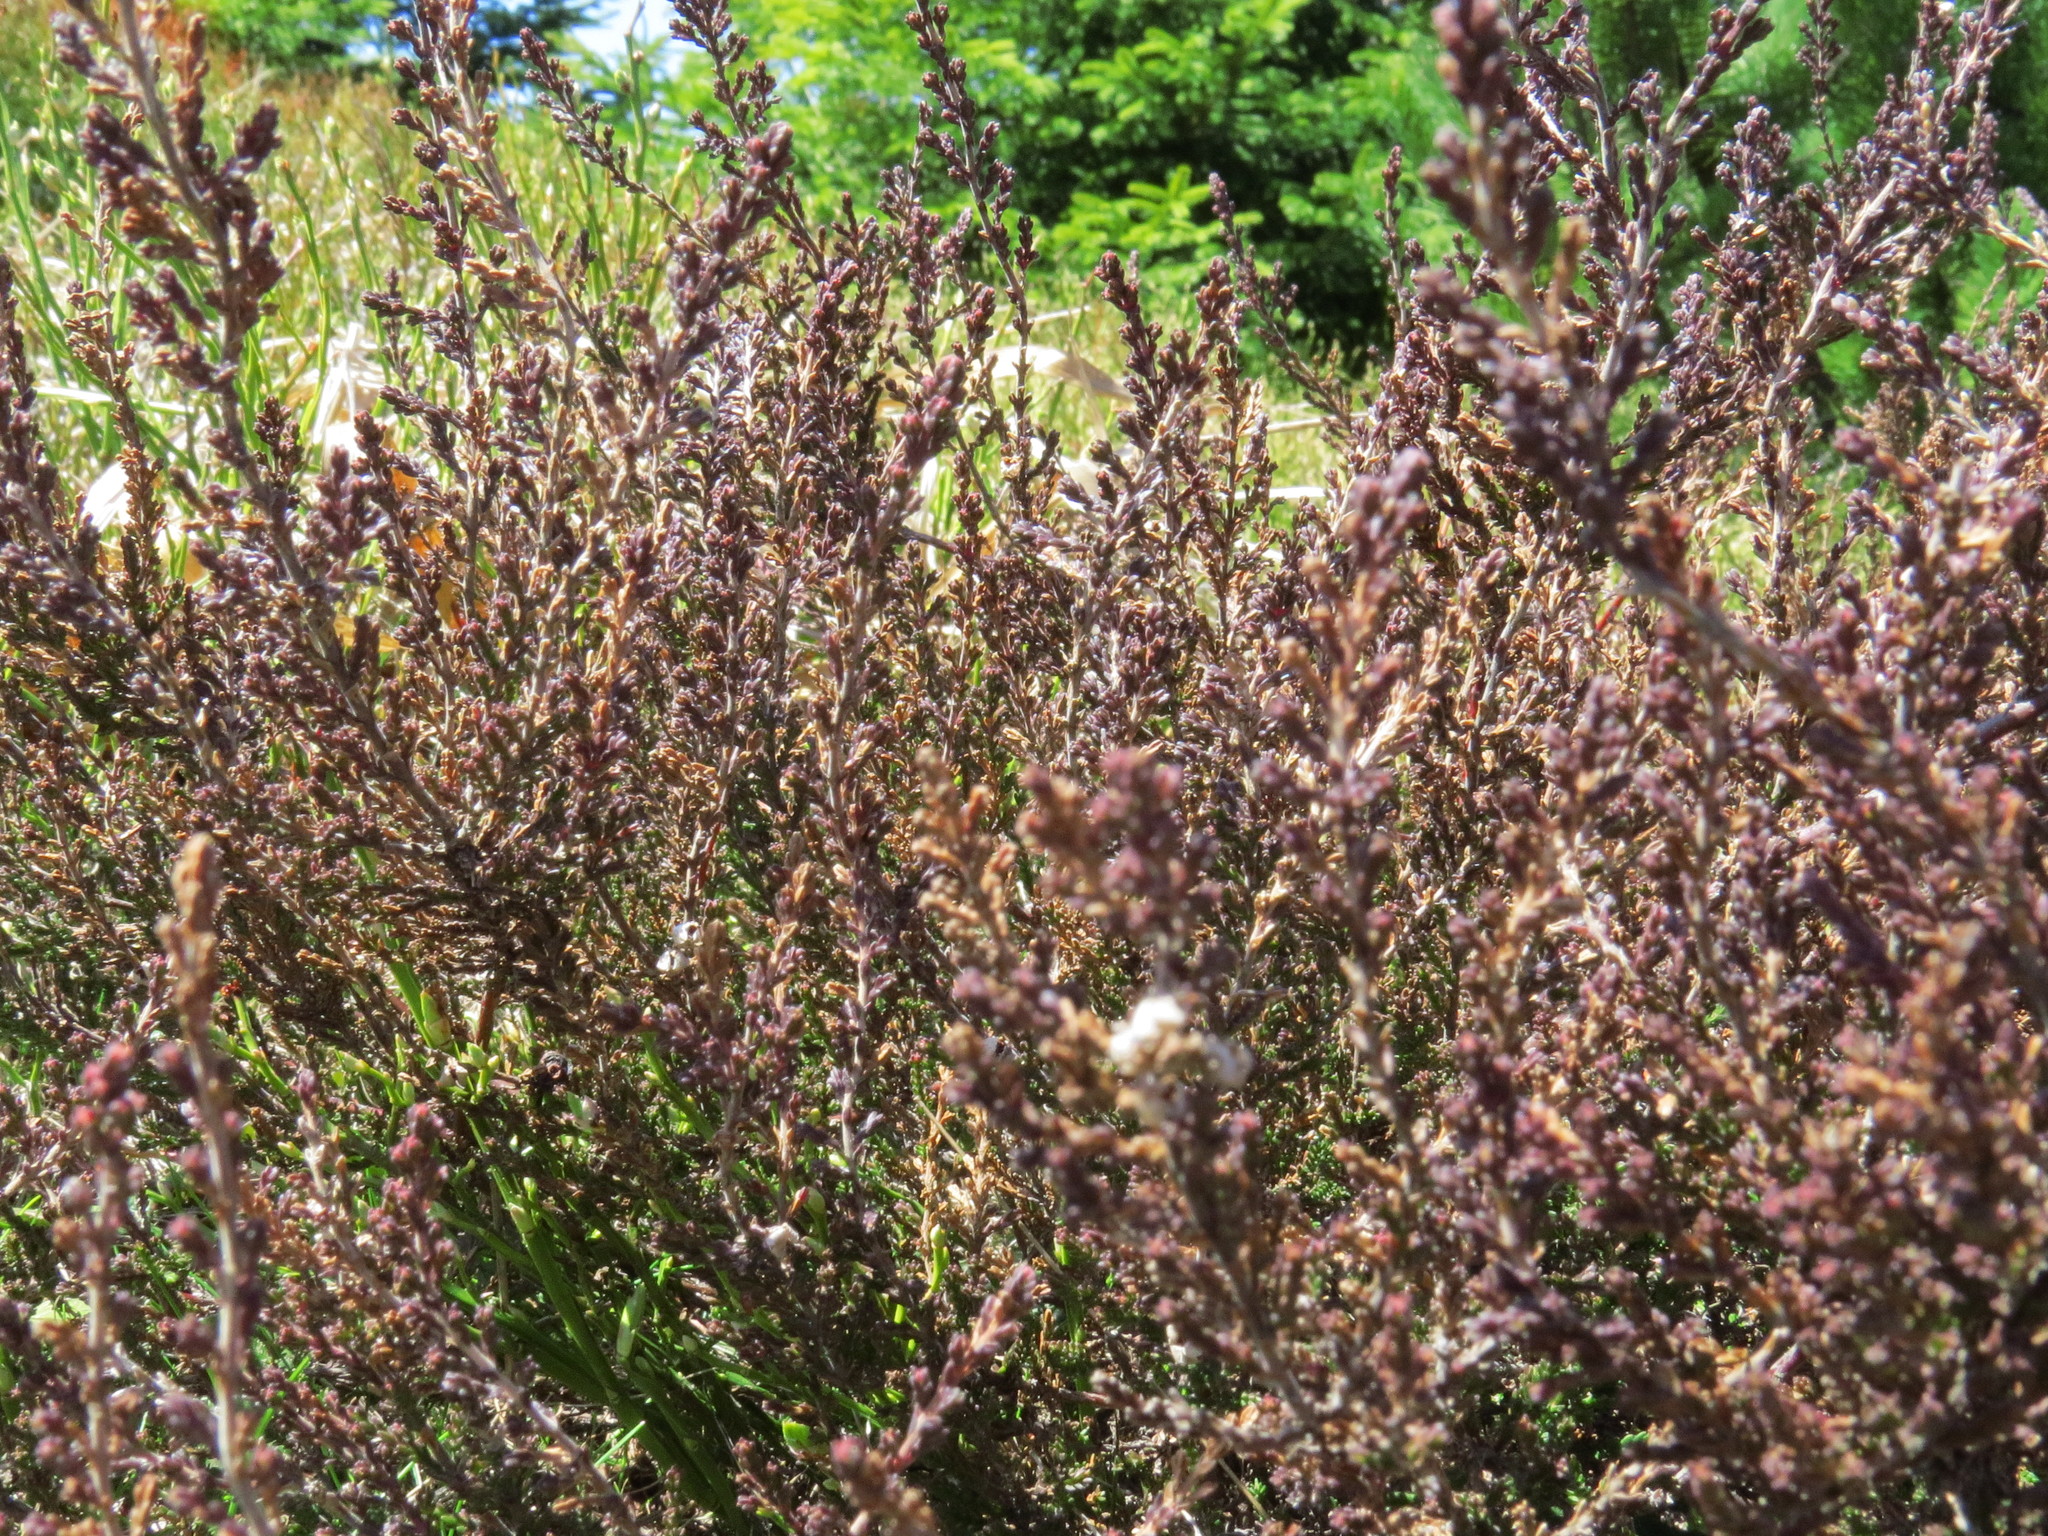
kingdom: Plantae
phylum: Tracheophyta
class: Magnoliopsida
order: Ericales
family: Ericaceae
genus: Calluna
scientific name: Calluna vulgaris
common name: Heather
